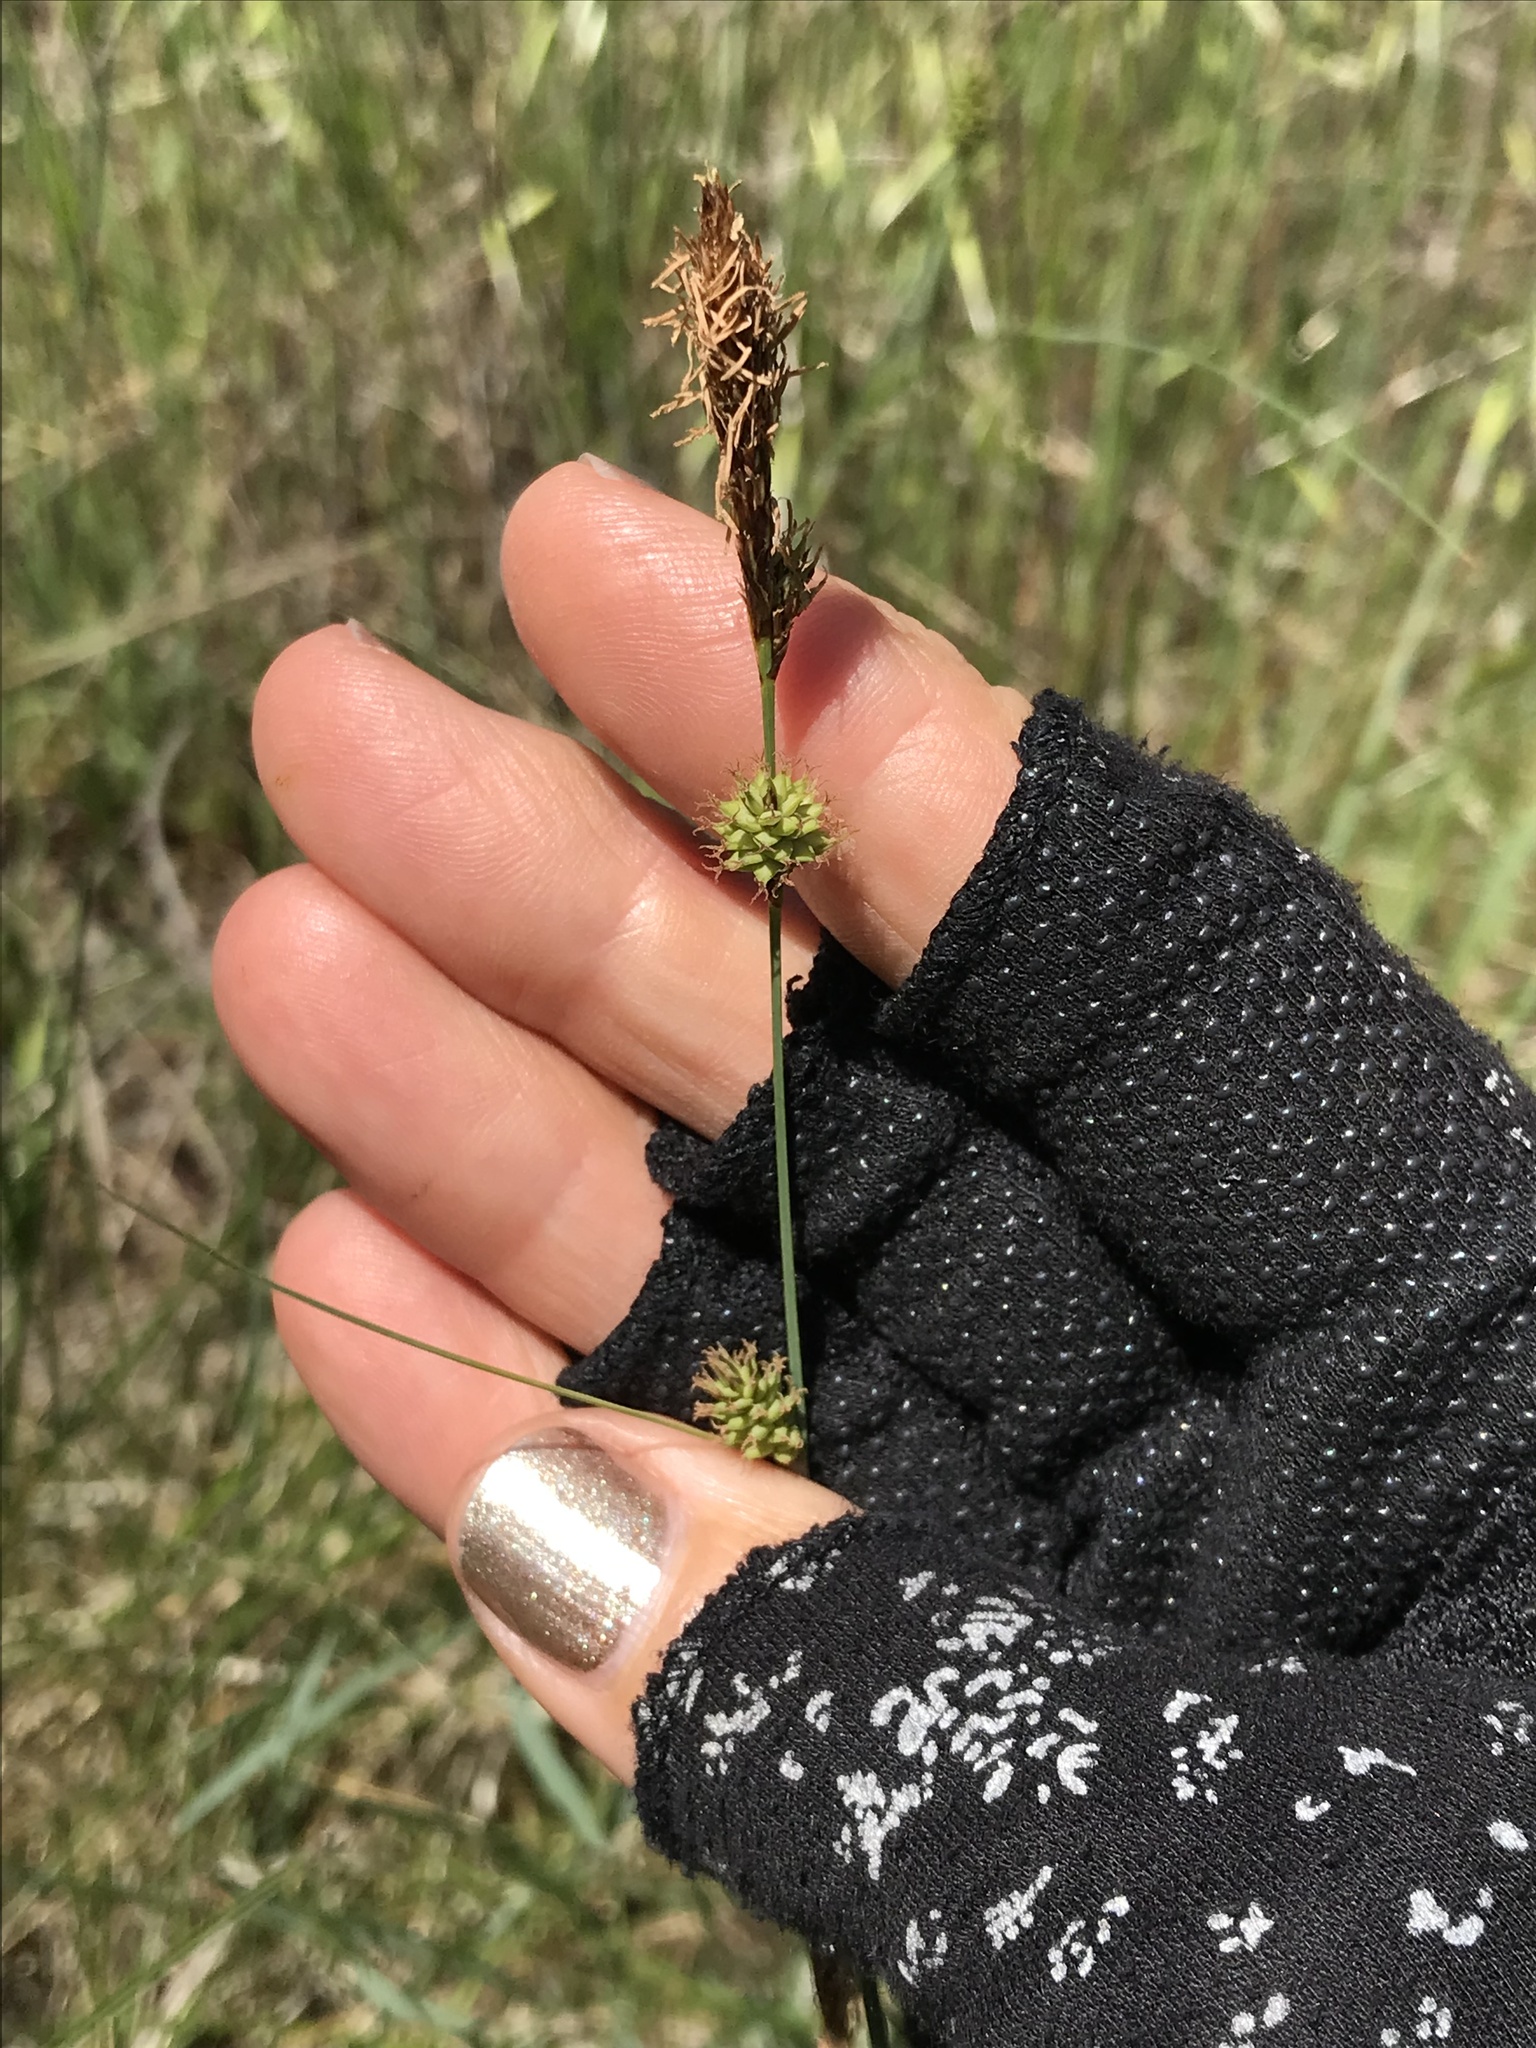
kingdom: Plantae
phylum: Tracheophyta
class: Liliopsida
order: Poales
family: Cyperaceae
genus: Carex
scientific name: Carex serratodens
